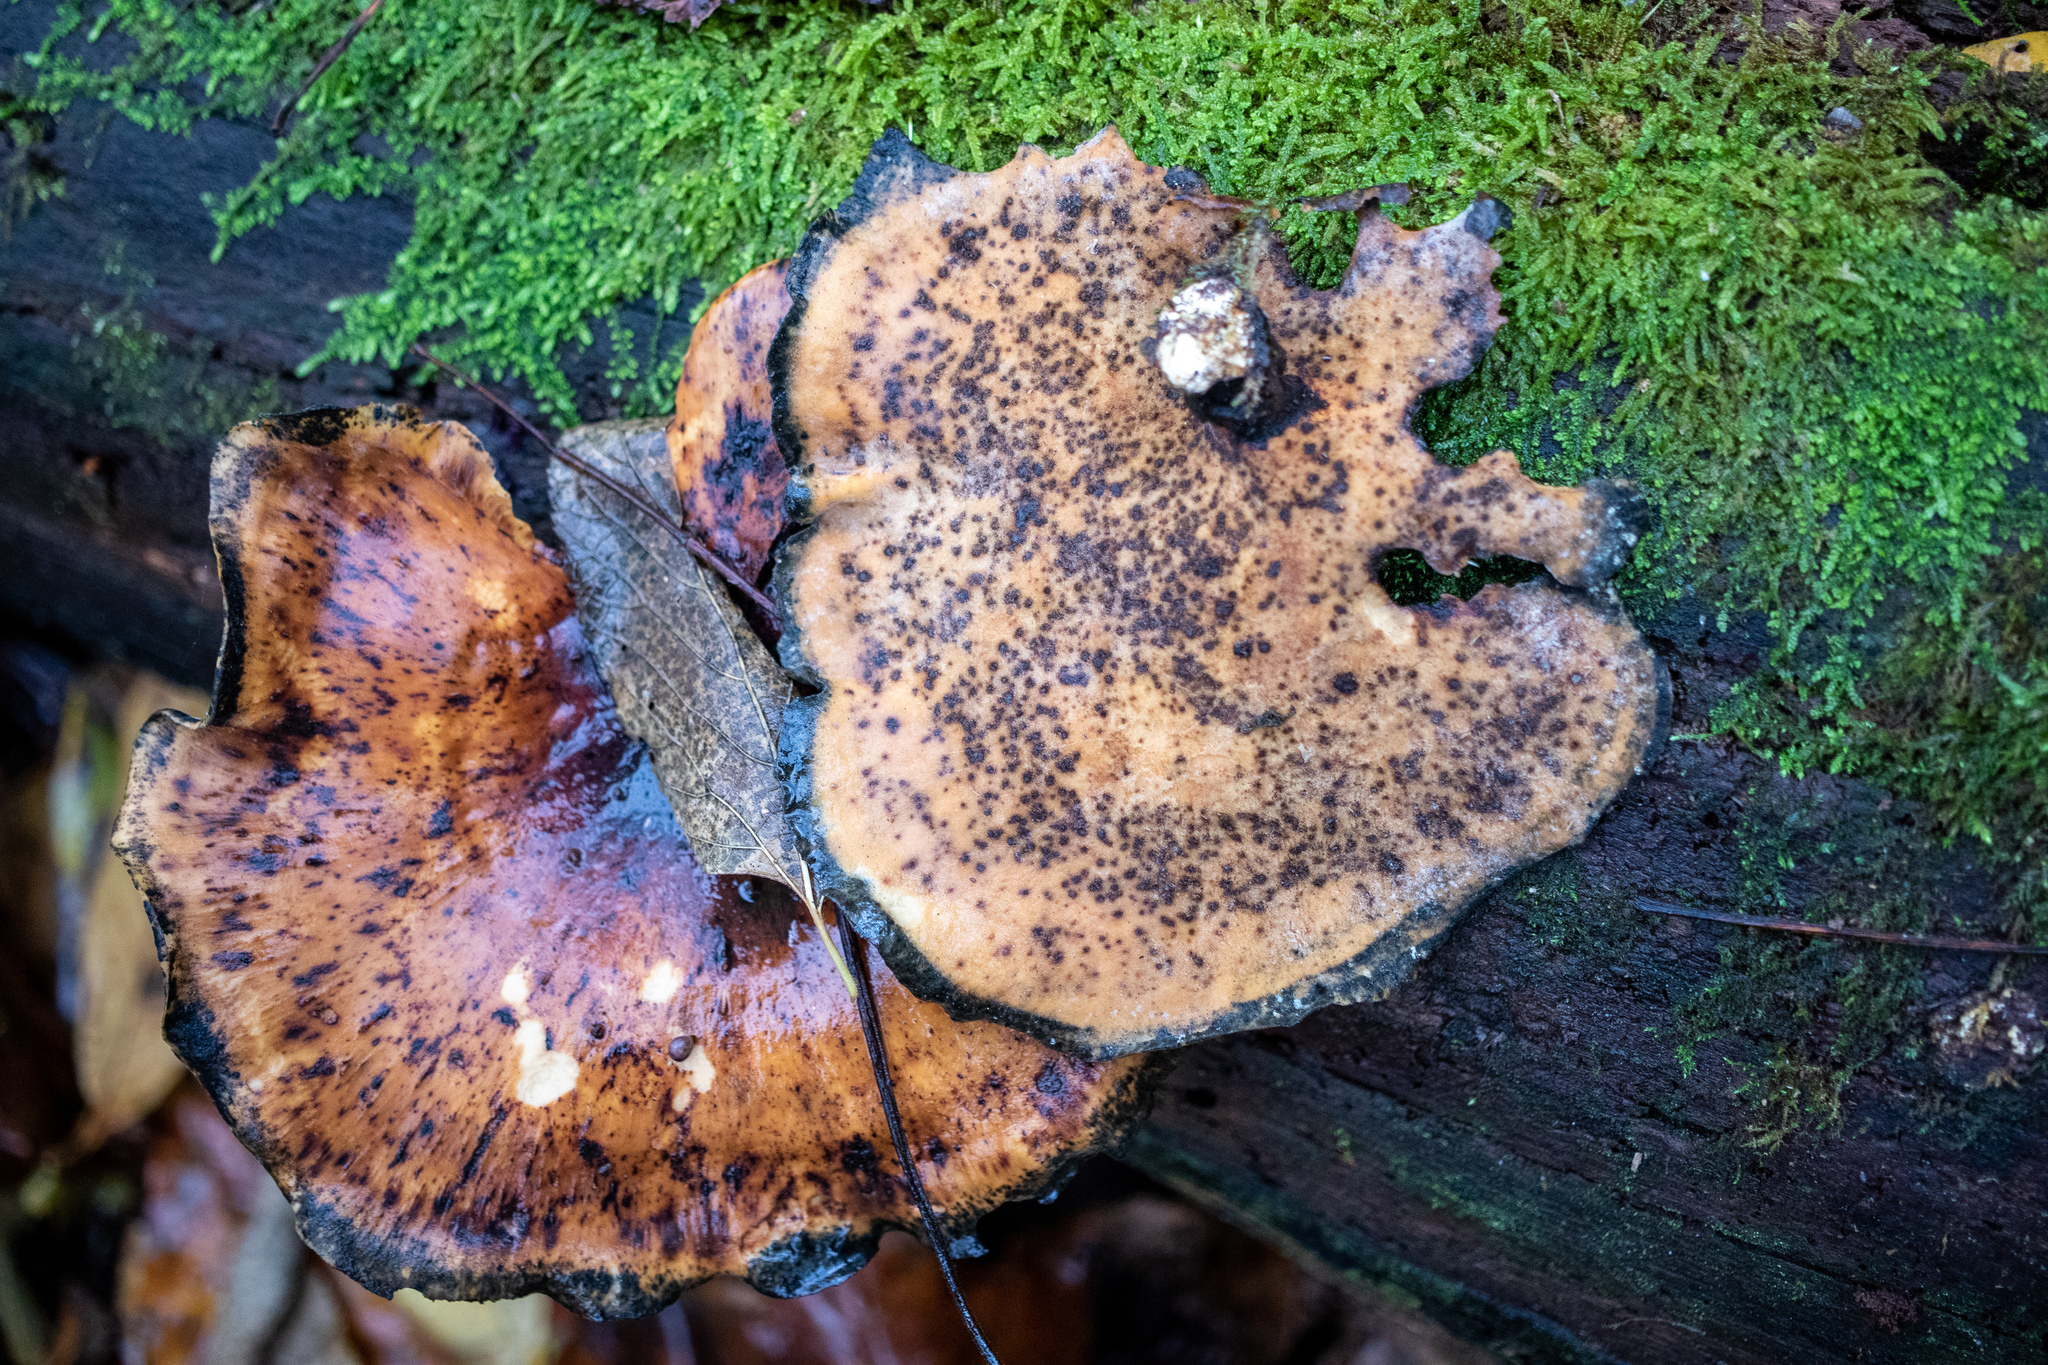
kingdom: Fungi
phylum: Basidiomycota
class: Agaricomycetes
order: Polyporales
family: Polyporaceae
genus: Picipes
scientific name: Picipes badius
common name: Bay polypore
